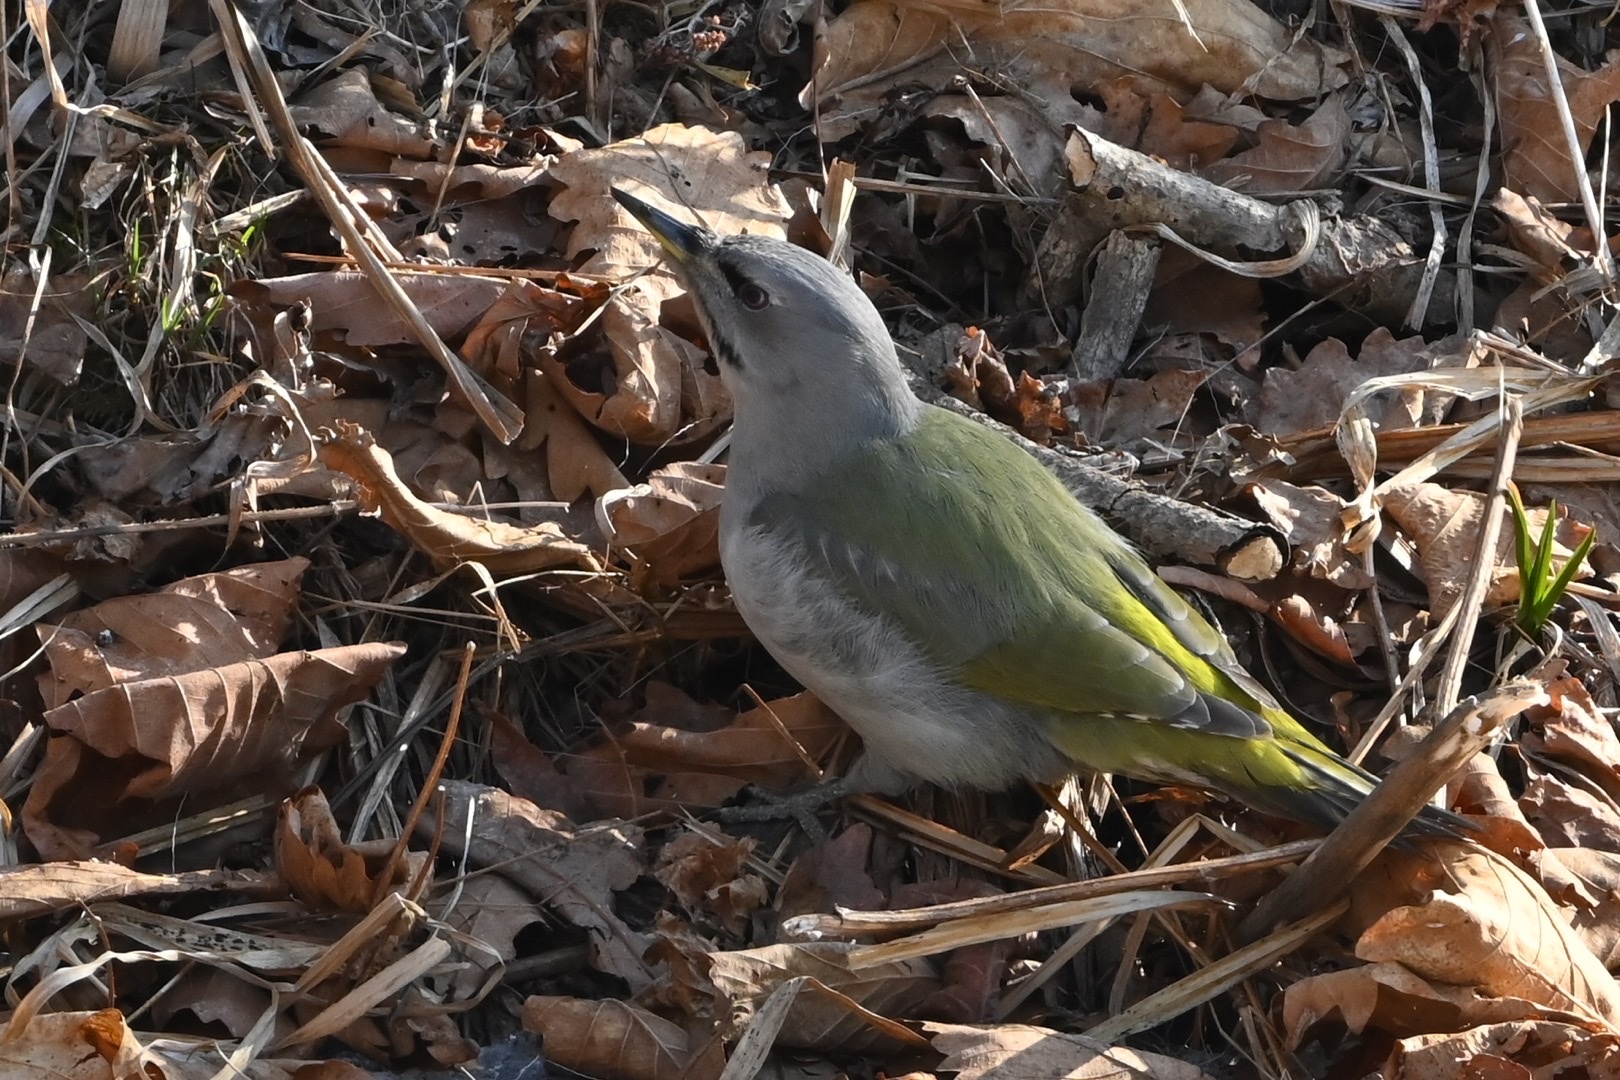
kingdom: Animalia
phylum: Chordata
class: Aves
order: Piciformes
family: Picidae
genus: Picus
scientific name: Picus canus
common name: Grey-headed woodpecker
